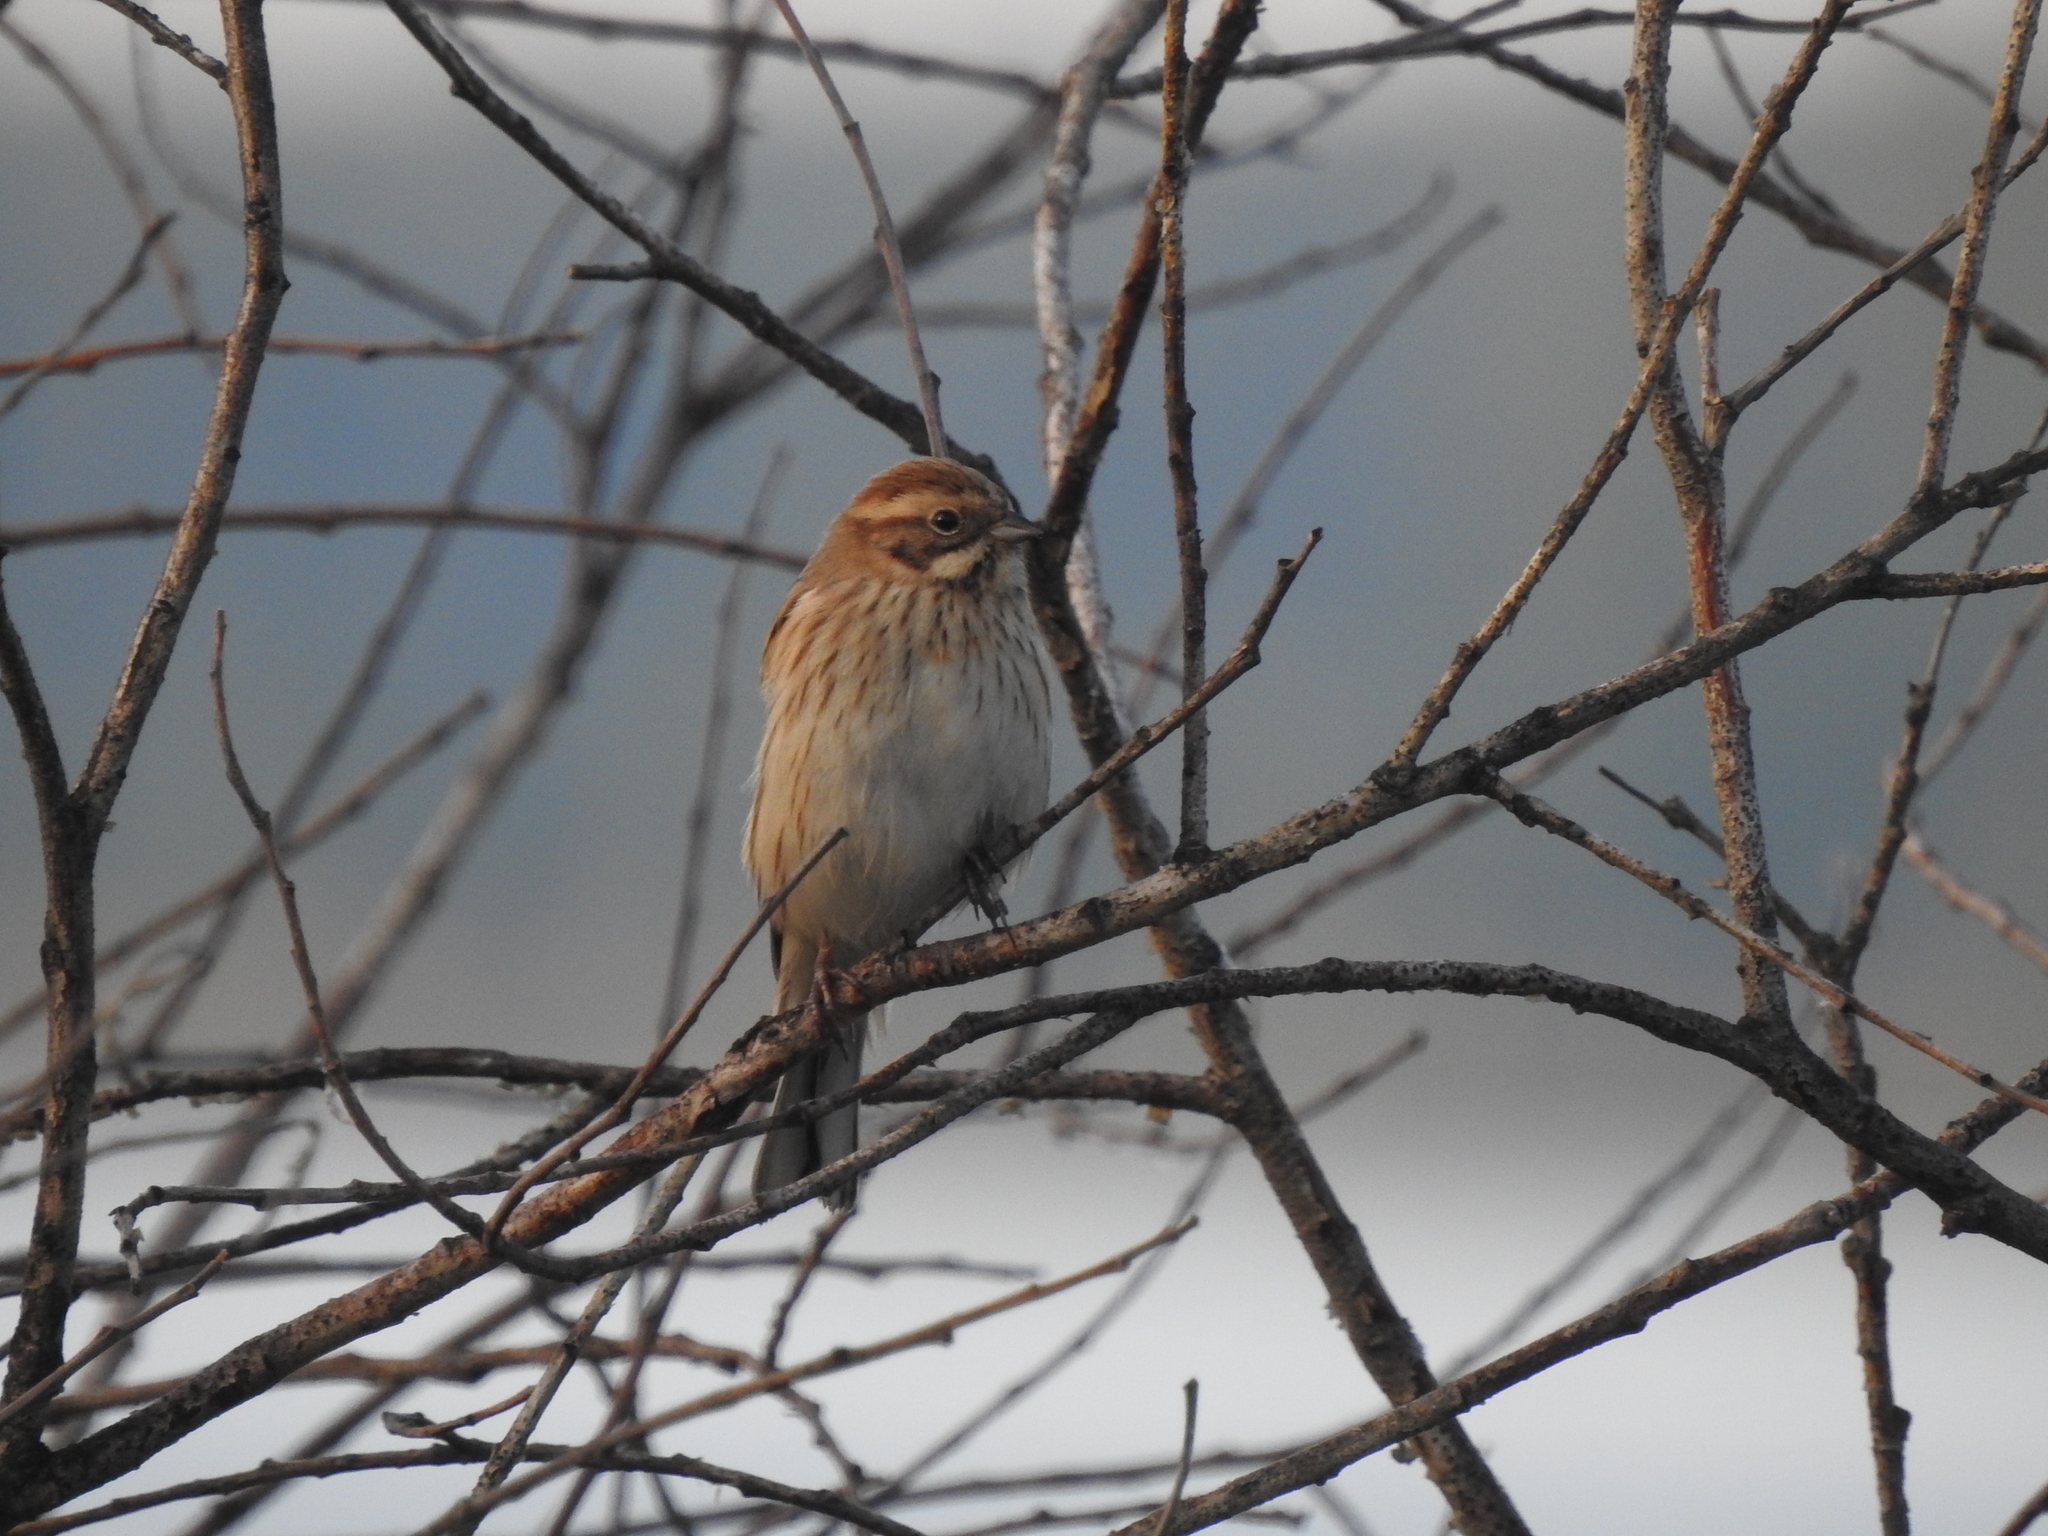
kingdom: Animalia
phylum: Chordata
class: Aves
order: Passeriformes
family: Emberizidae
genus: Emberiza
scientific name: Emberiza schoeniclus
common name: Reed bunting
